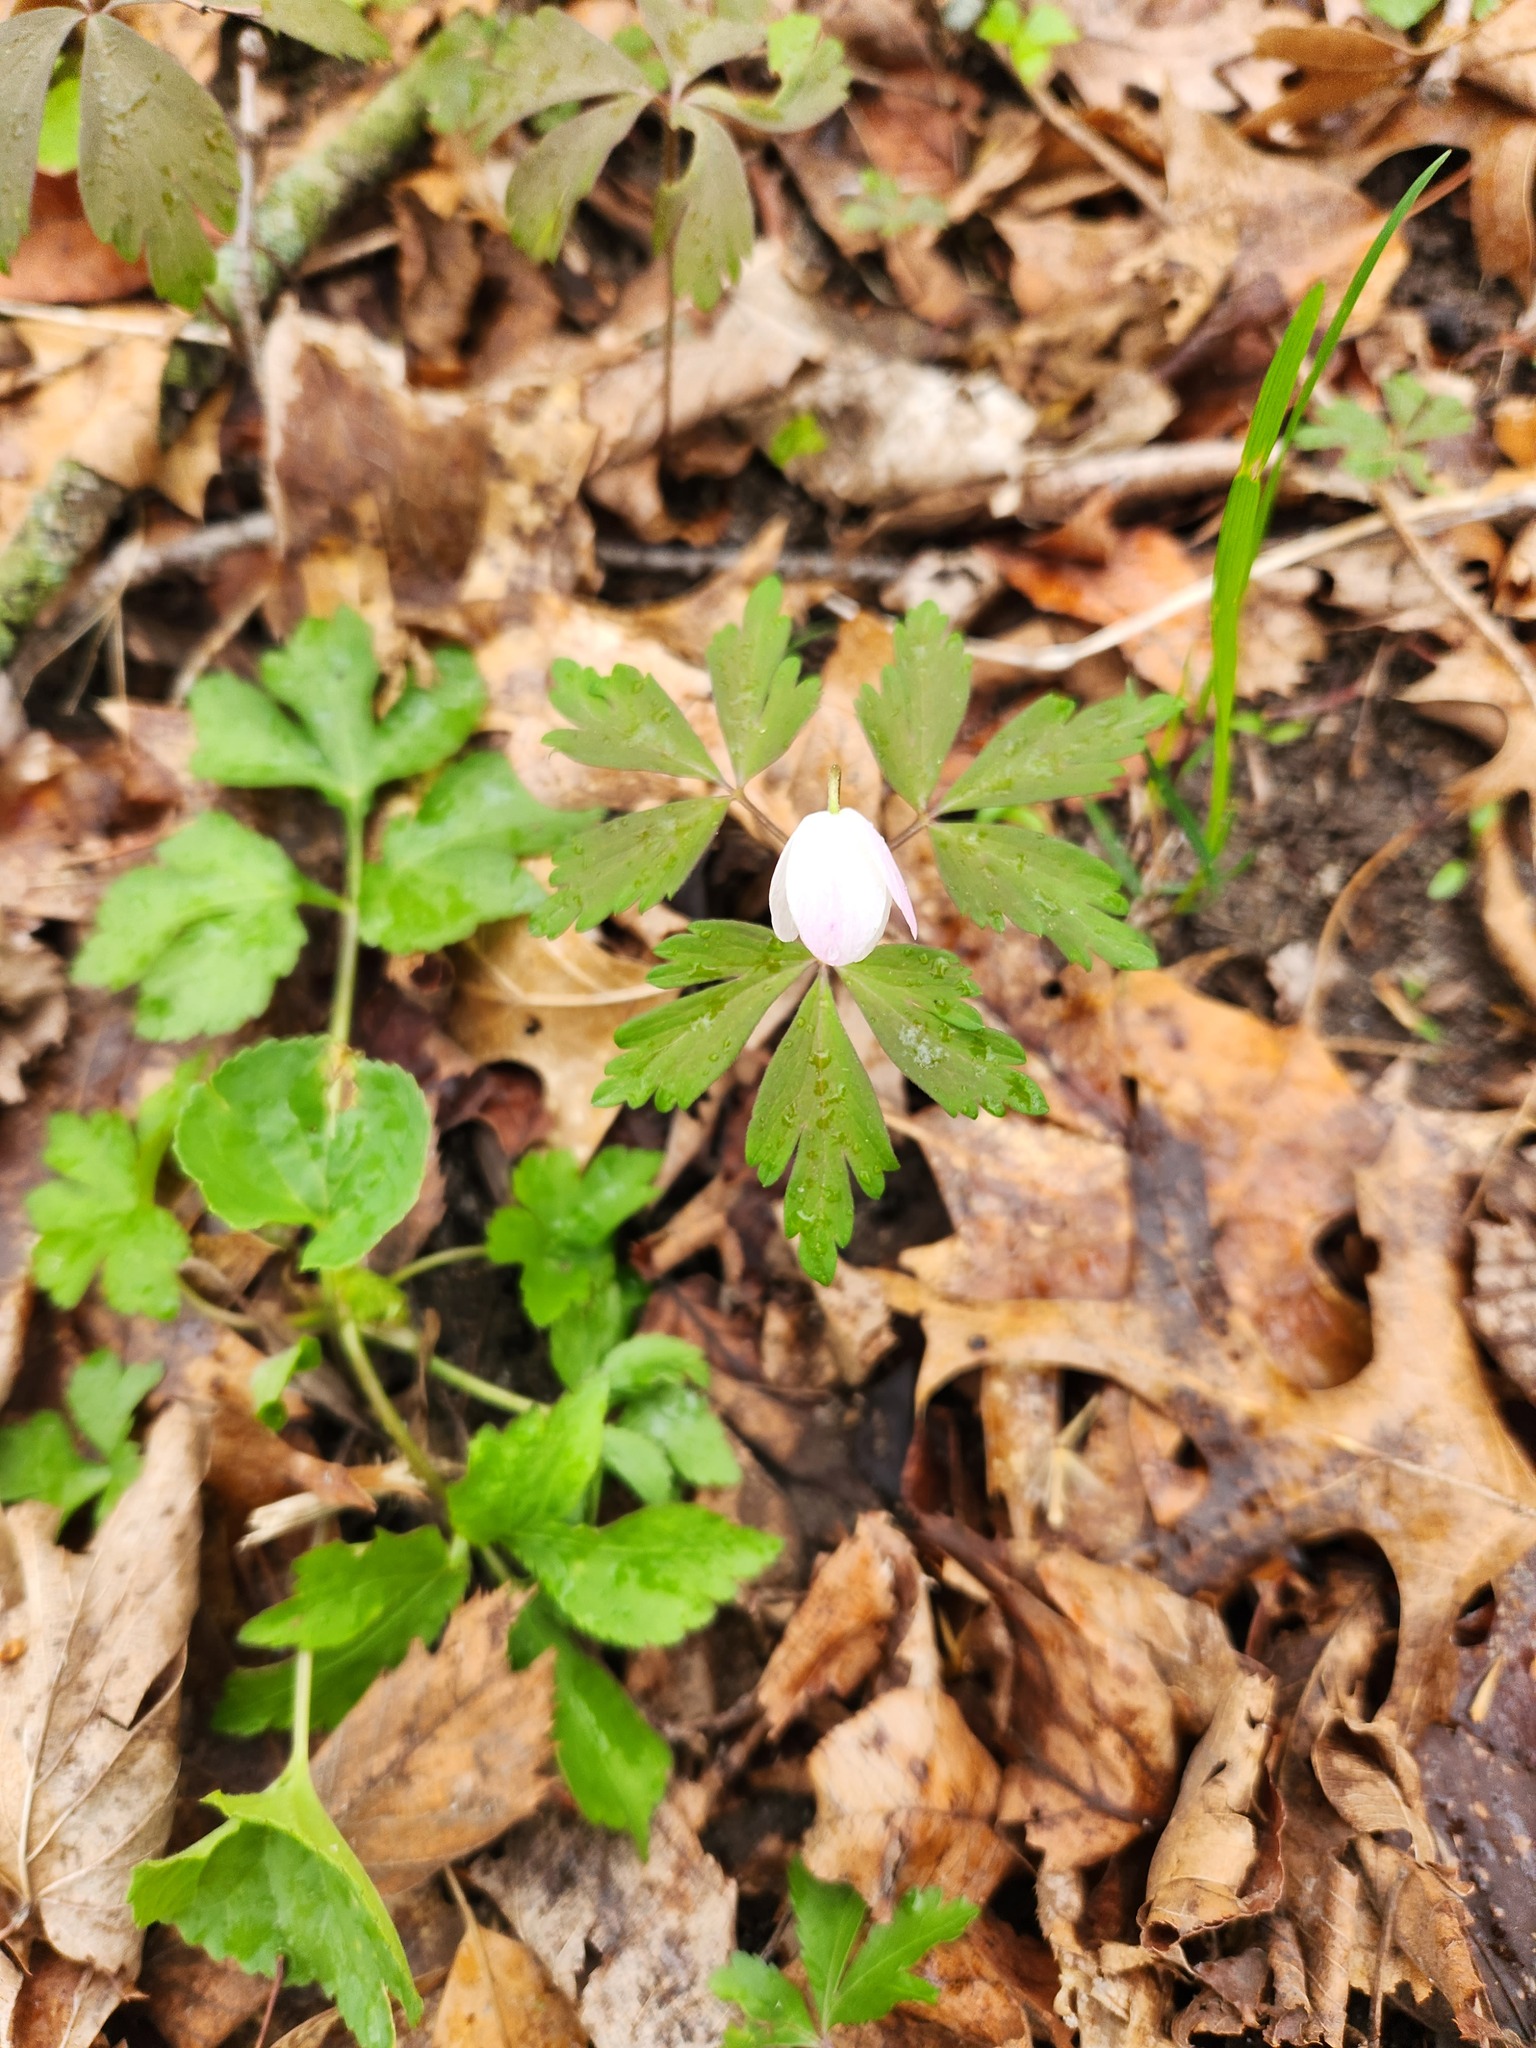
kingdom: Plantae
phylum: Tracheophyta
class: Magnoliopsida
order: Ranunculales
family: Ranunculaceae
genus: Anemone
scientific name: Anemone quinquefolia
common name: Wood anemone
